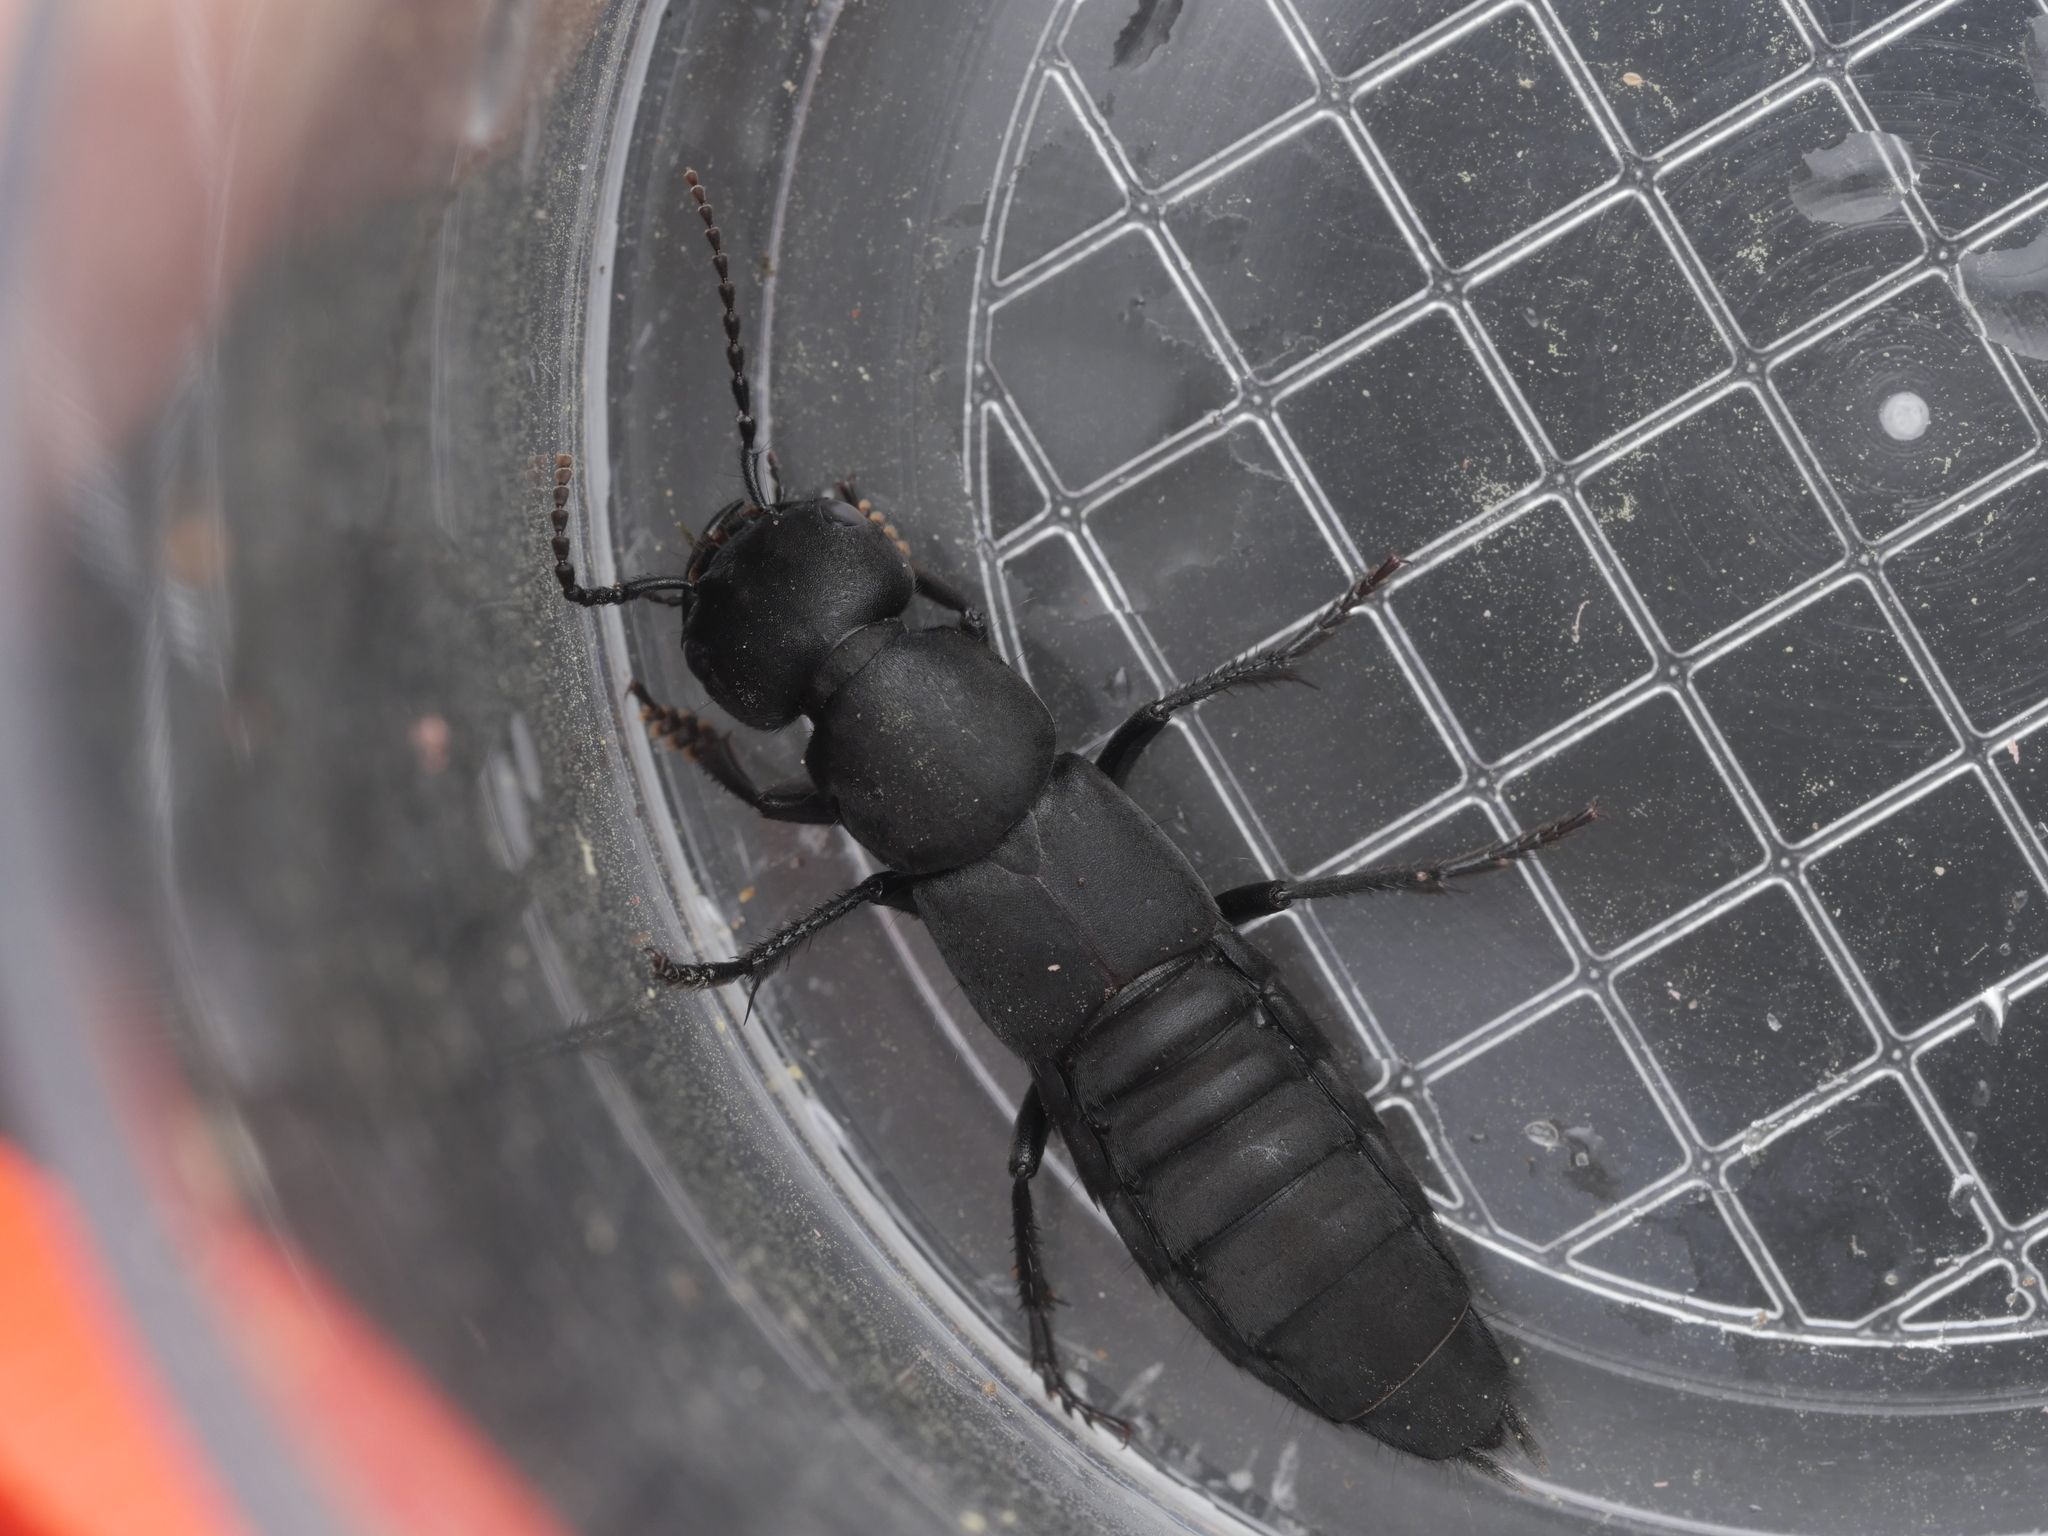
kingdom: Animalia
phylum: Arthropoda
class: Insecta
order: Coleoptera
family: Staphylinidae
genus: Ocypus
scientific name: Ocypus olens
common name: Devil's coach-horse
